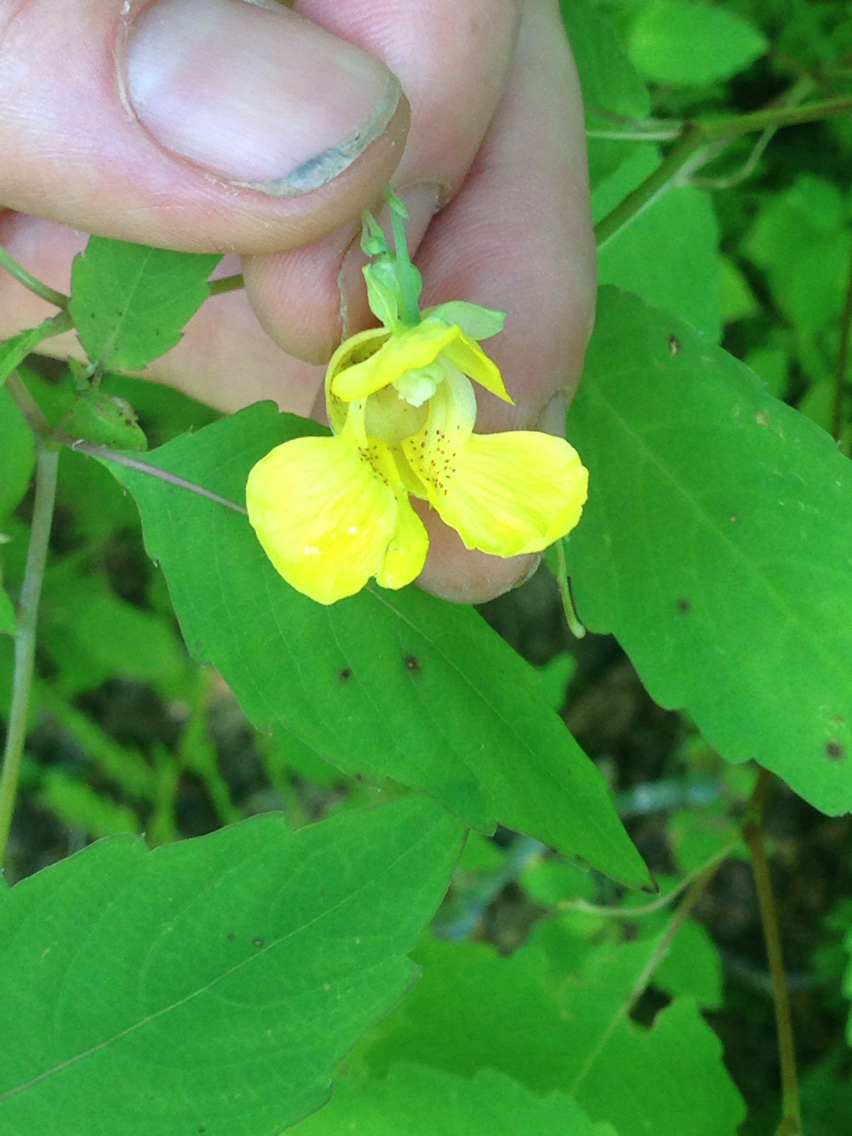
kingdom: Plantae
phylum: Tracheophyta
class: Magnoliopsida
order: Ericales
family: Balsaminaceae
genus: Impatiens
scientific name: Impatiens pallida
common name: Pale snapweed
